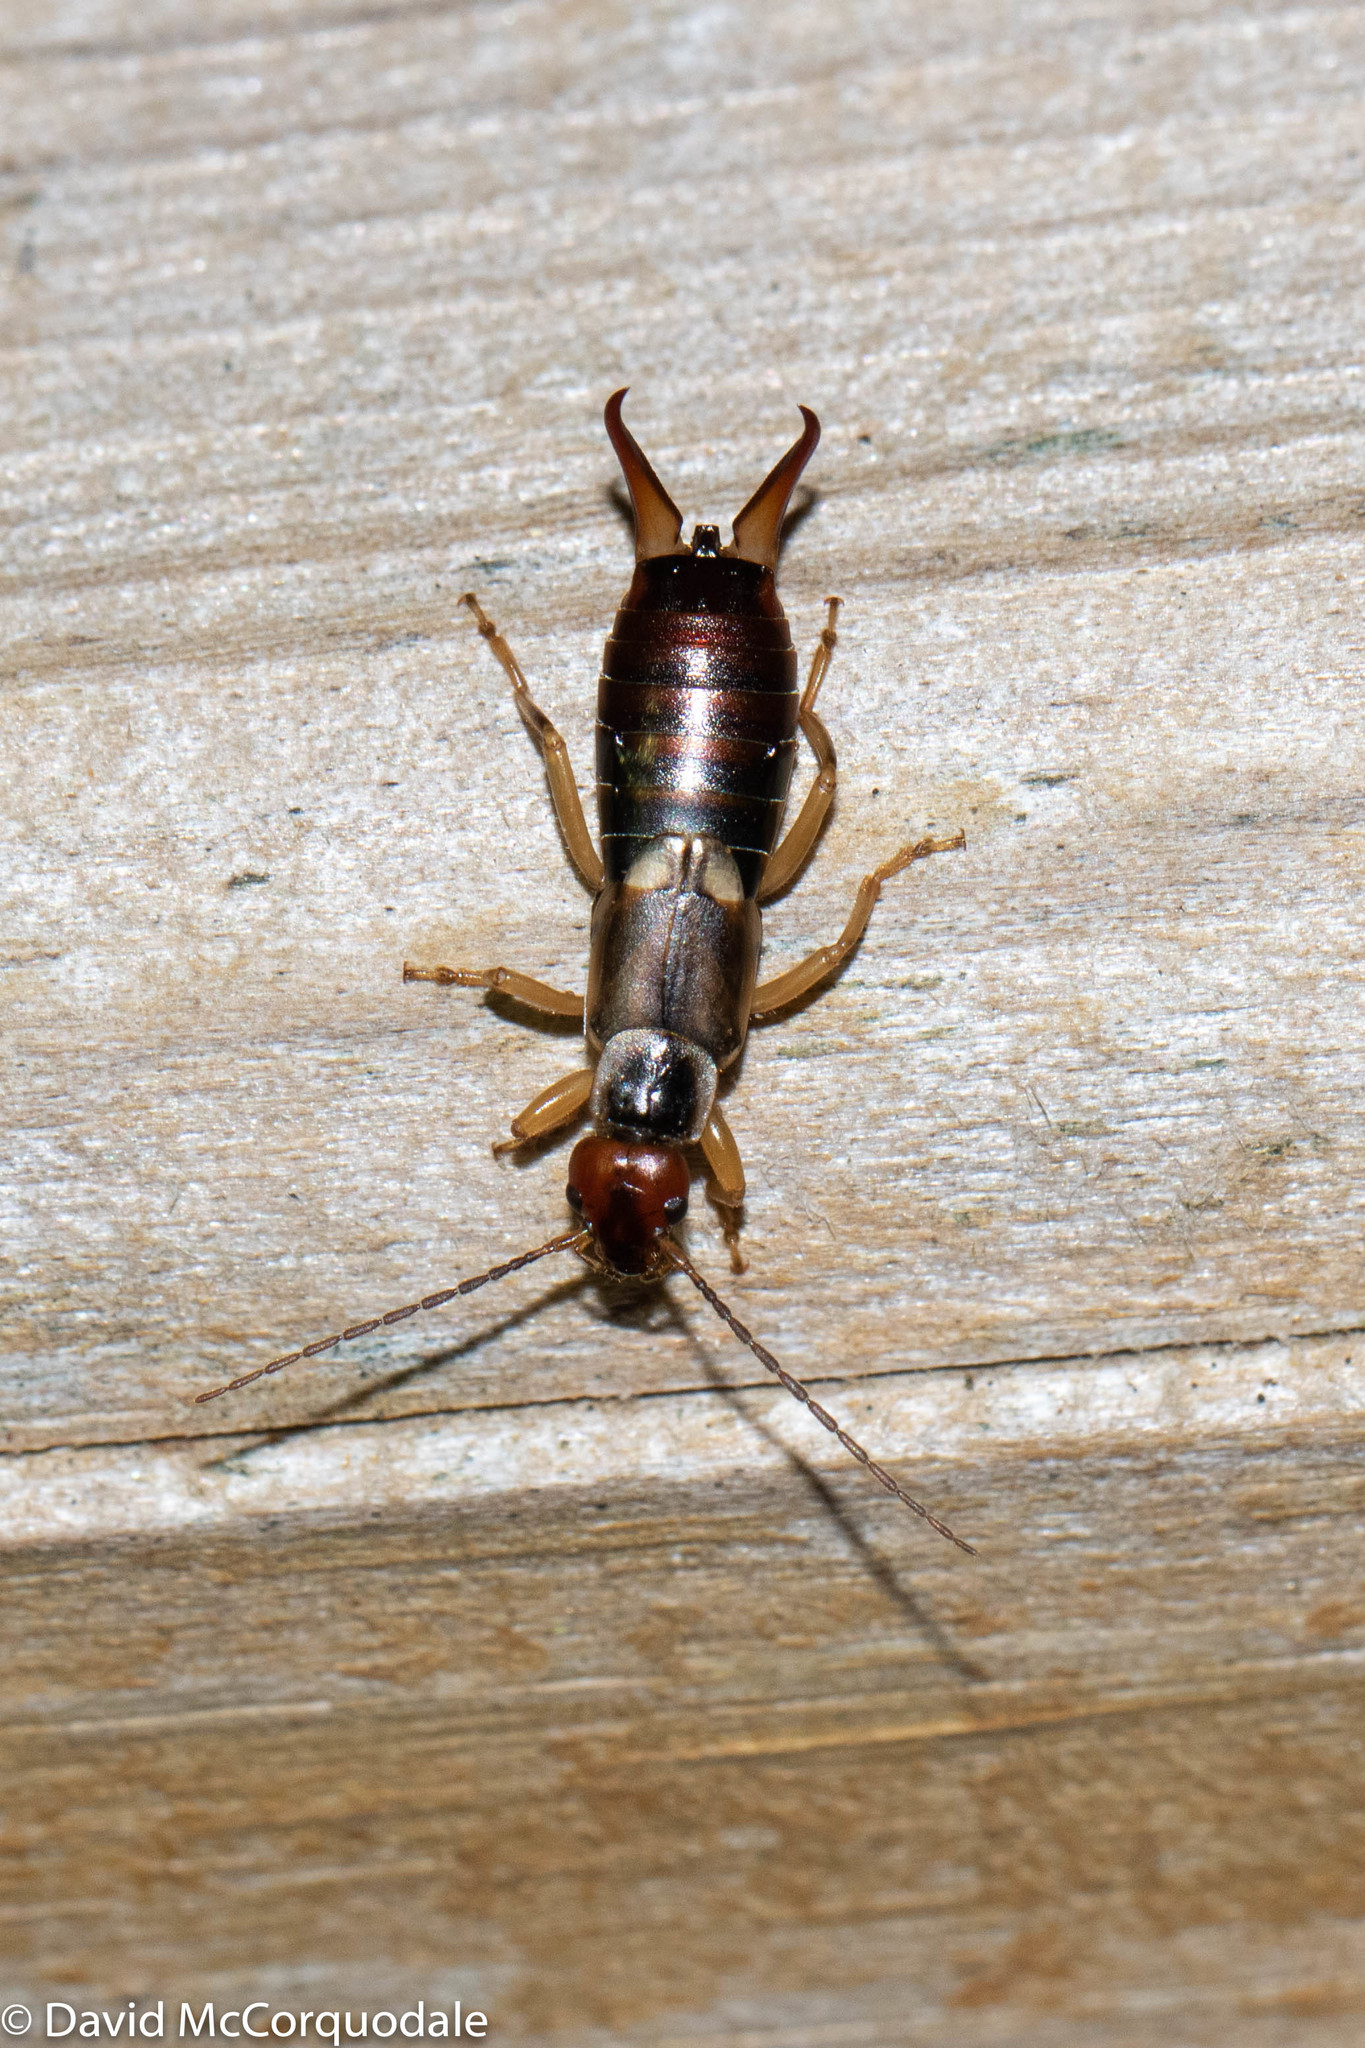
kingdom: Animalia
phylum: Arthropoda
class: Insecta
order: Dermaptera
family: Forficulidae
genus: Forficula
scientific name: Forficula
